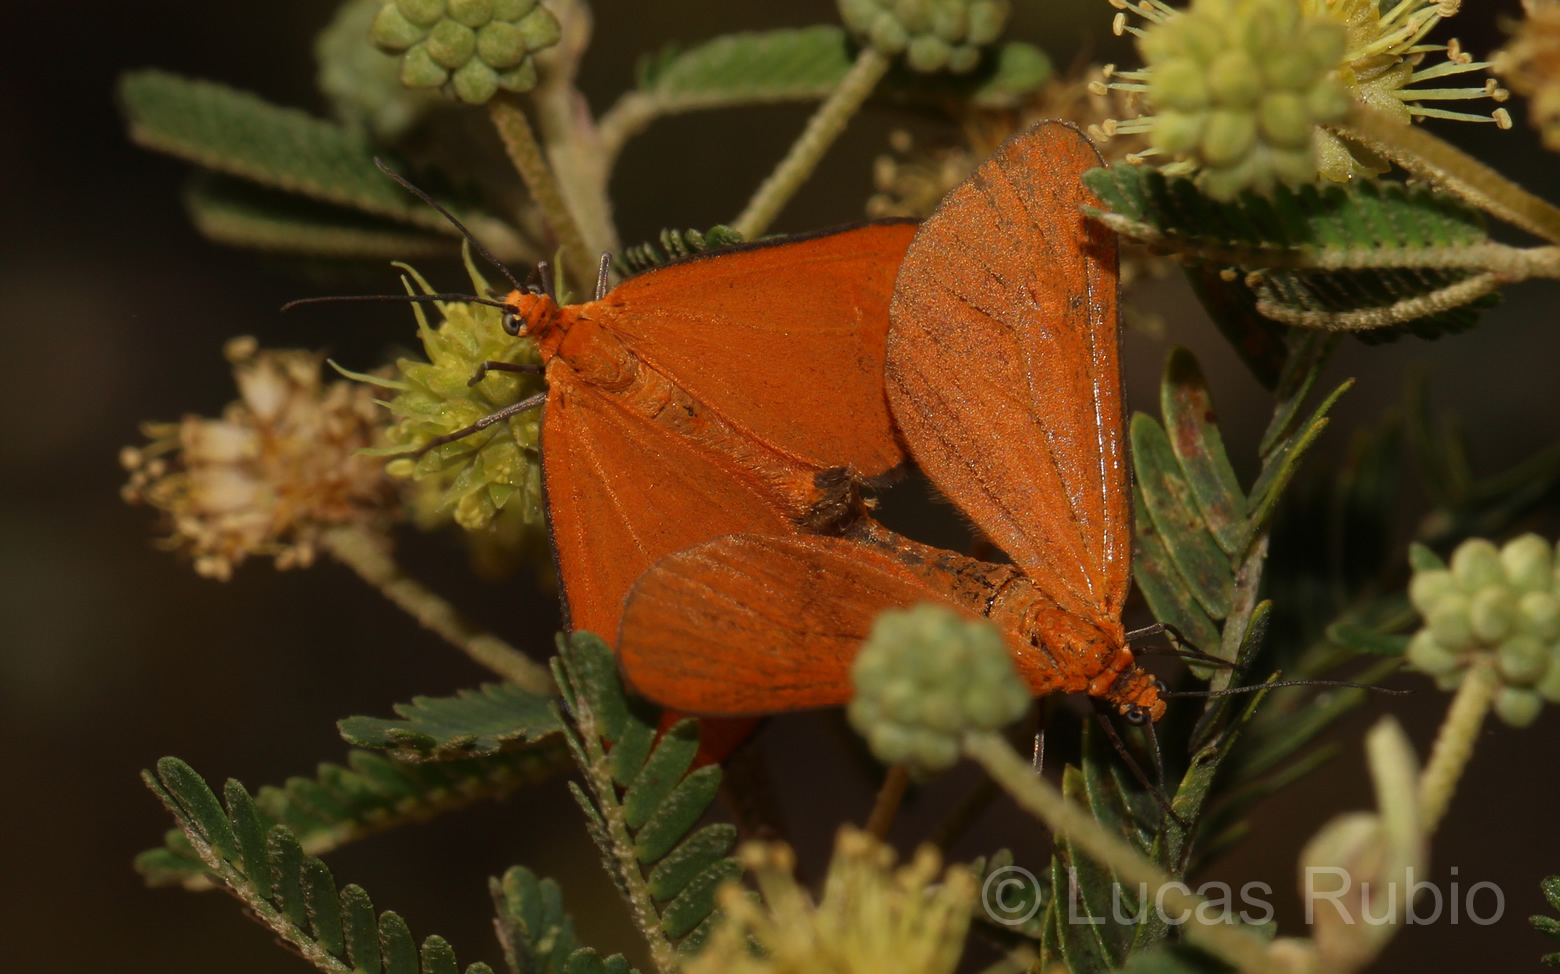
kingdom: Animalia
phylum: Arthropoda
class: Insecta
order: Lepidoptera
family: Geometridae
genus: Eudulophasia
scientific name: Eudulophasia invaria
